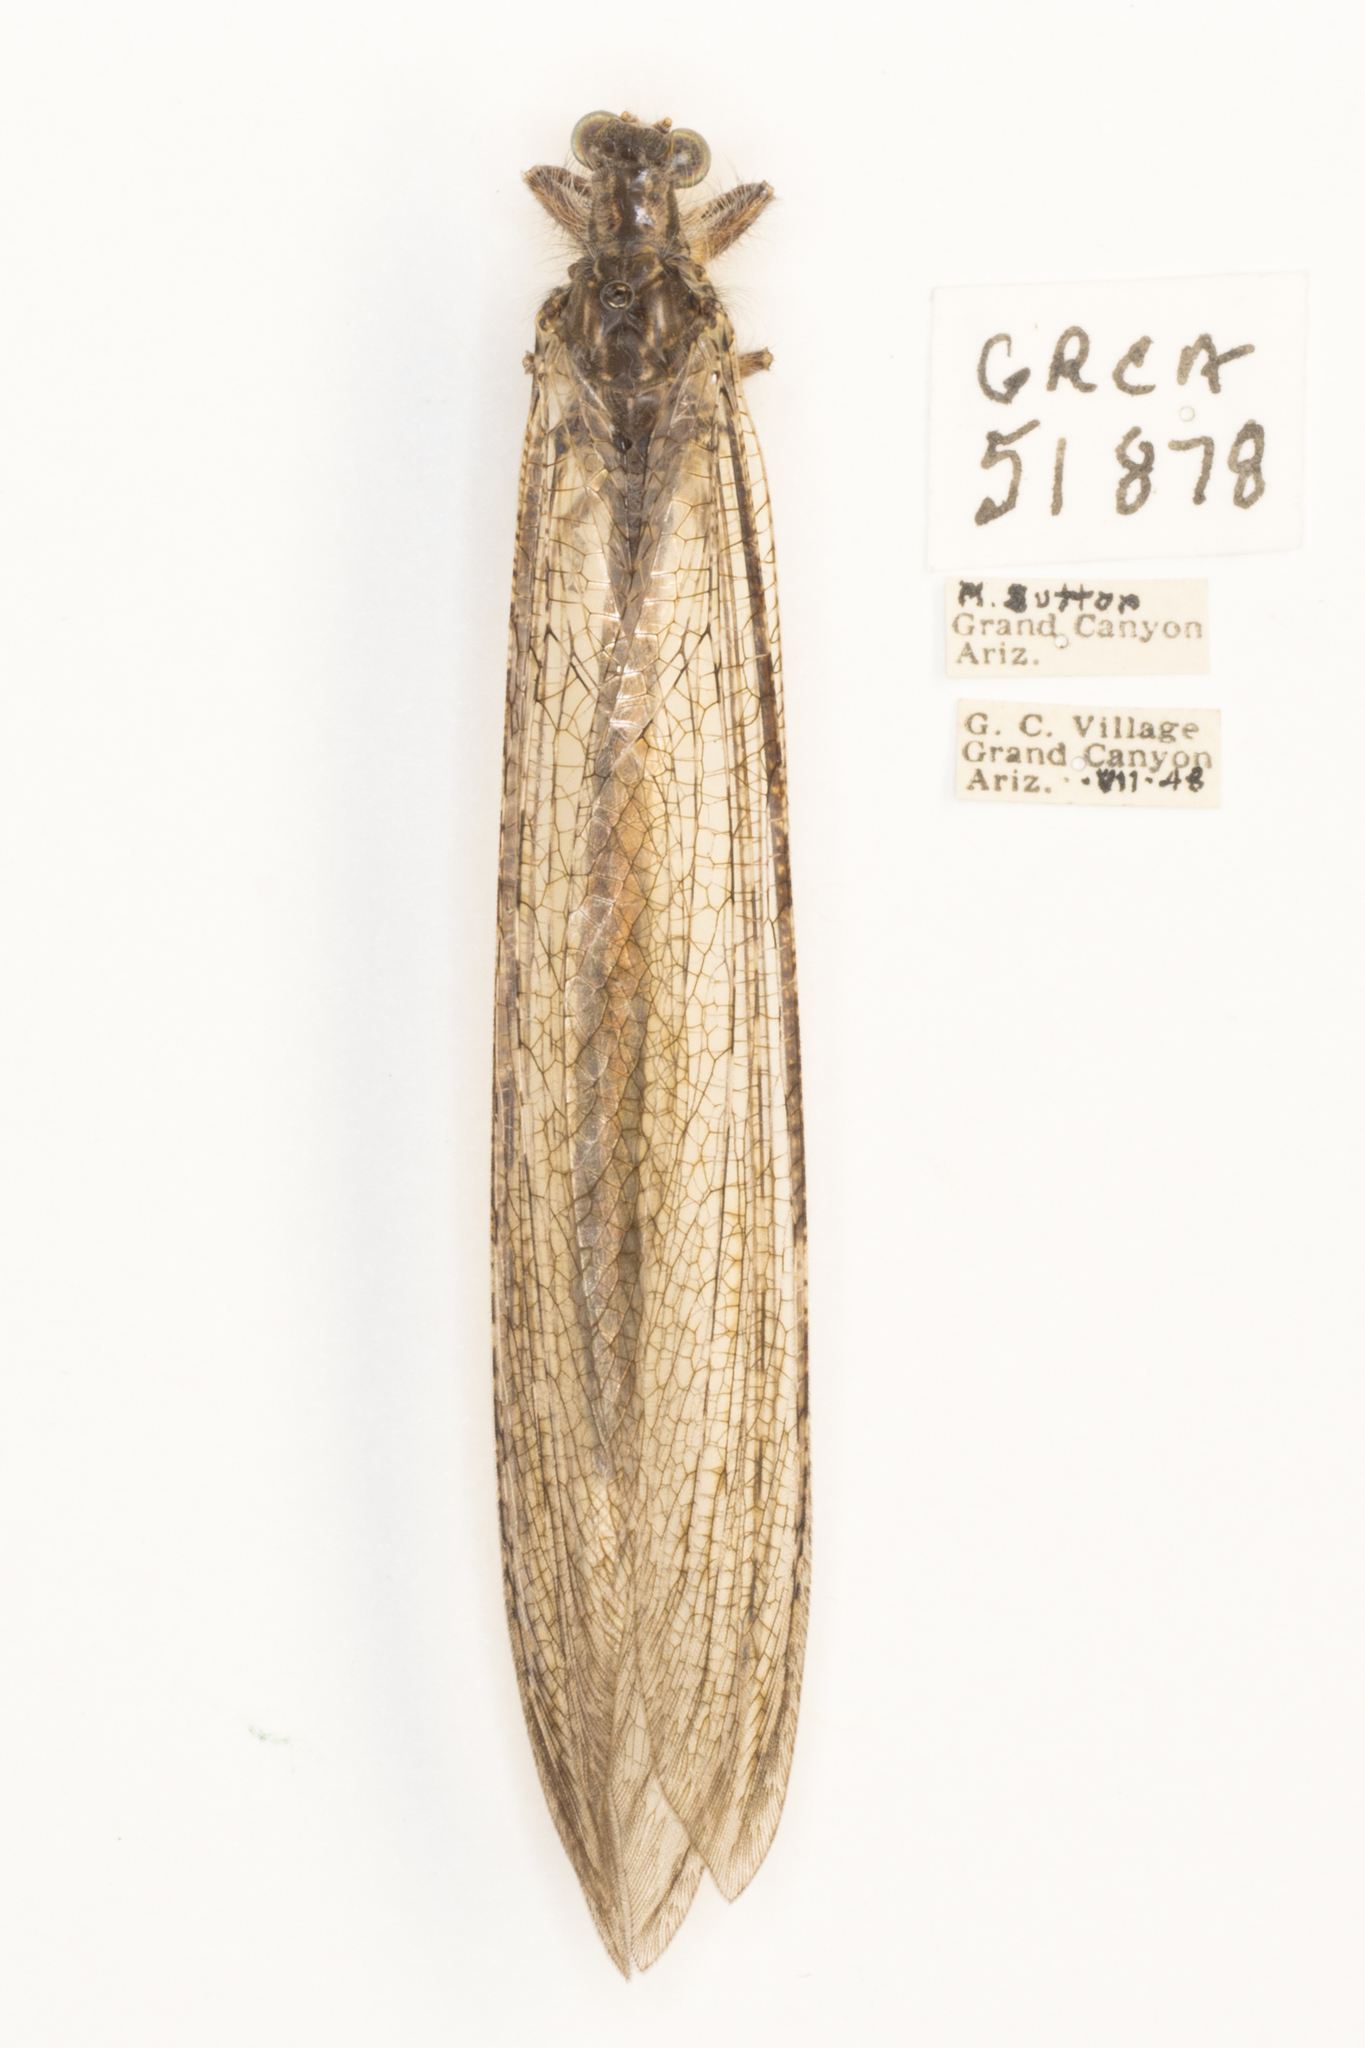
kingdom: Animalia
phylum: Arthropoda
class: Insecta
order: Neuroptera
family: Myrmeleontidae
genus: Vella
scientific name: Vella fallax
